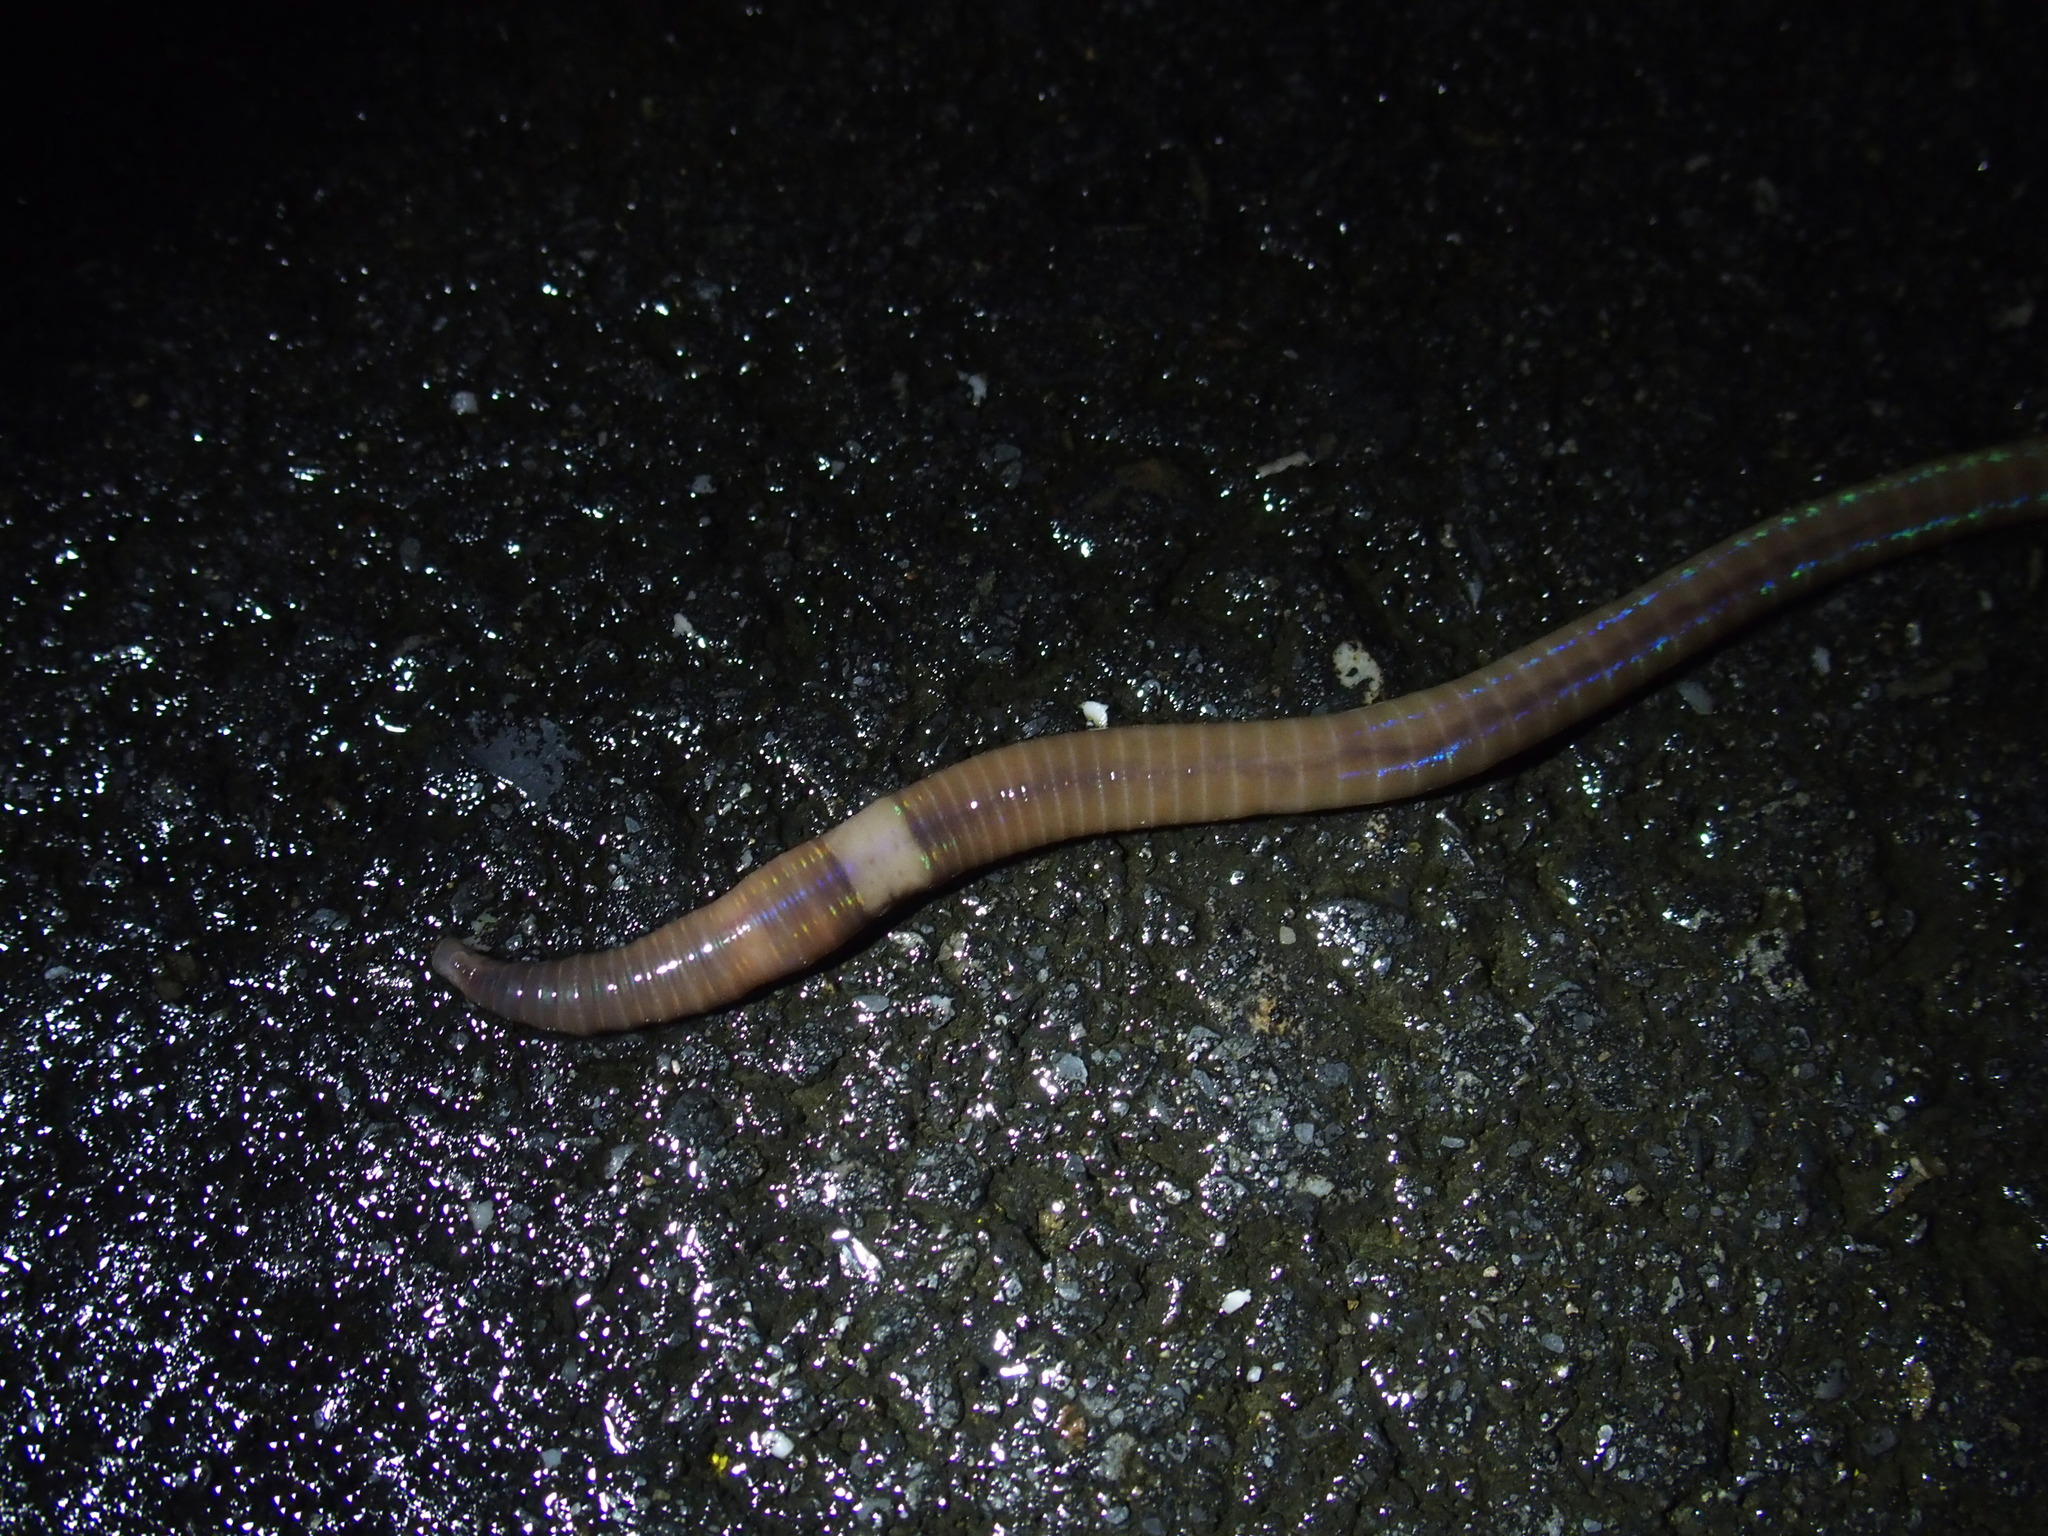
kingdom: Animalia
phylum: Annelida
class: Clitellata
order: Crassiclitellata
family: Megascolecidae
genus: Amynthas
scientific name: Amynthas sexpectatus
